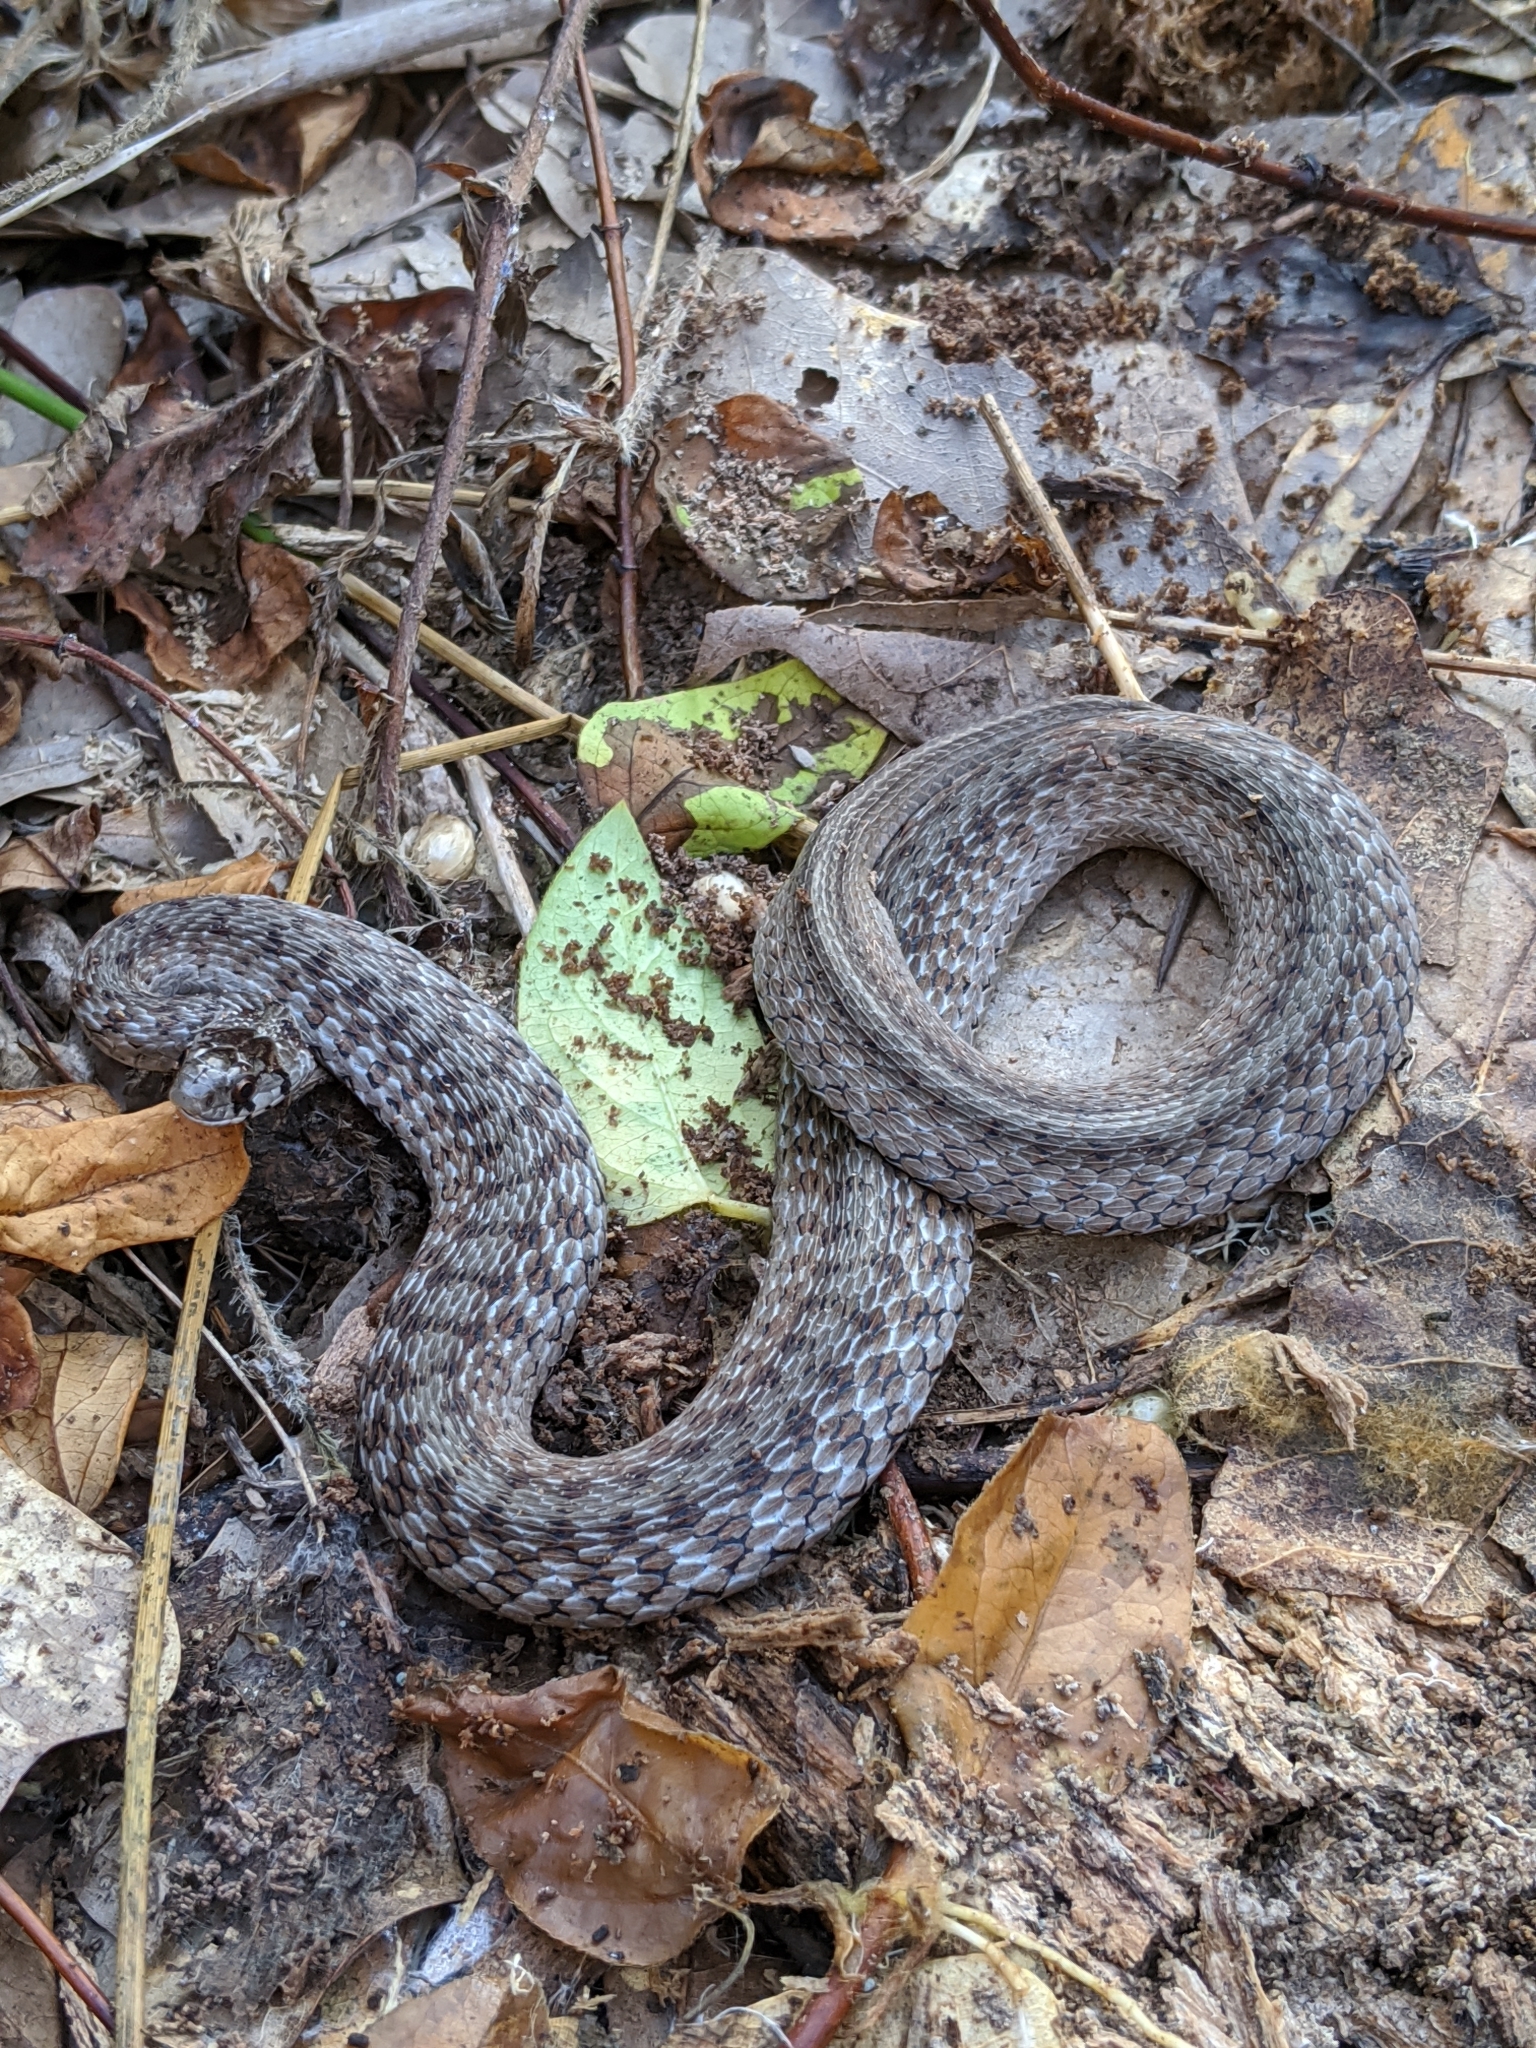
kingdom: Animalia
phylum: Chordata
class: Squamata
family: Colubridae
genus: Storeria
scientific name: Storeria dekayi
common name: (dekay’s) brown snake
